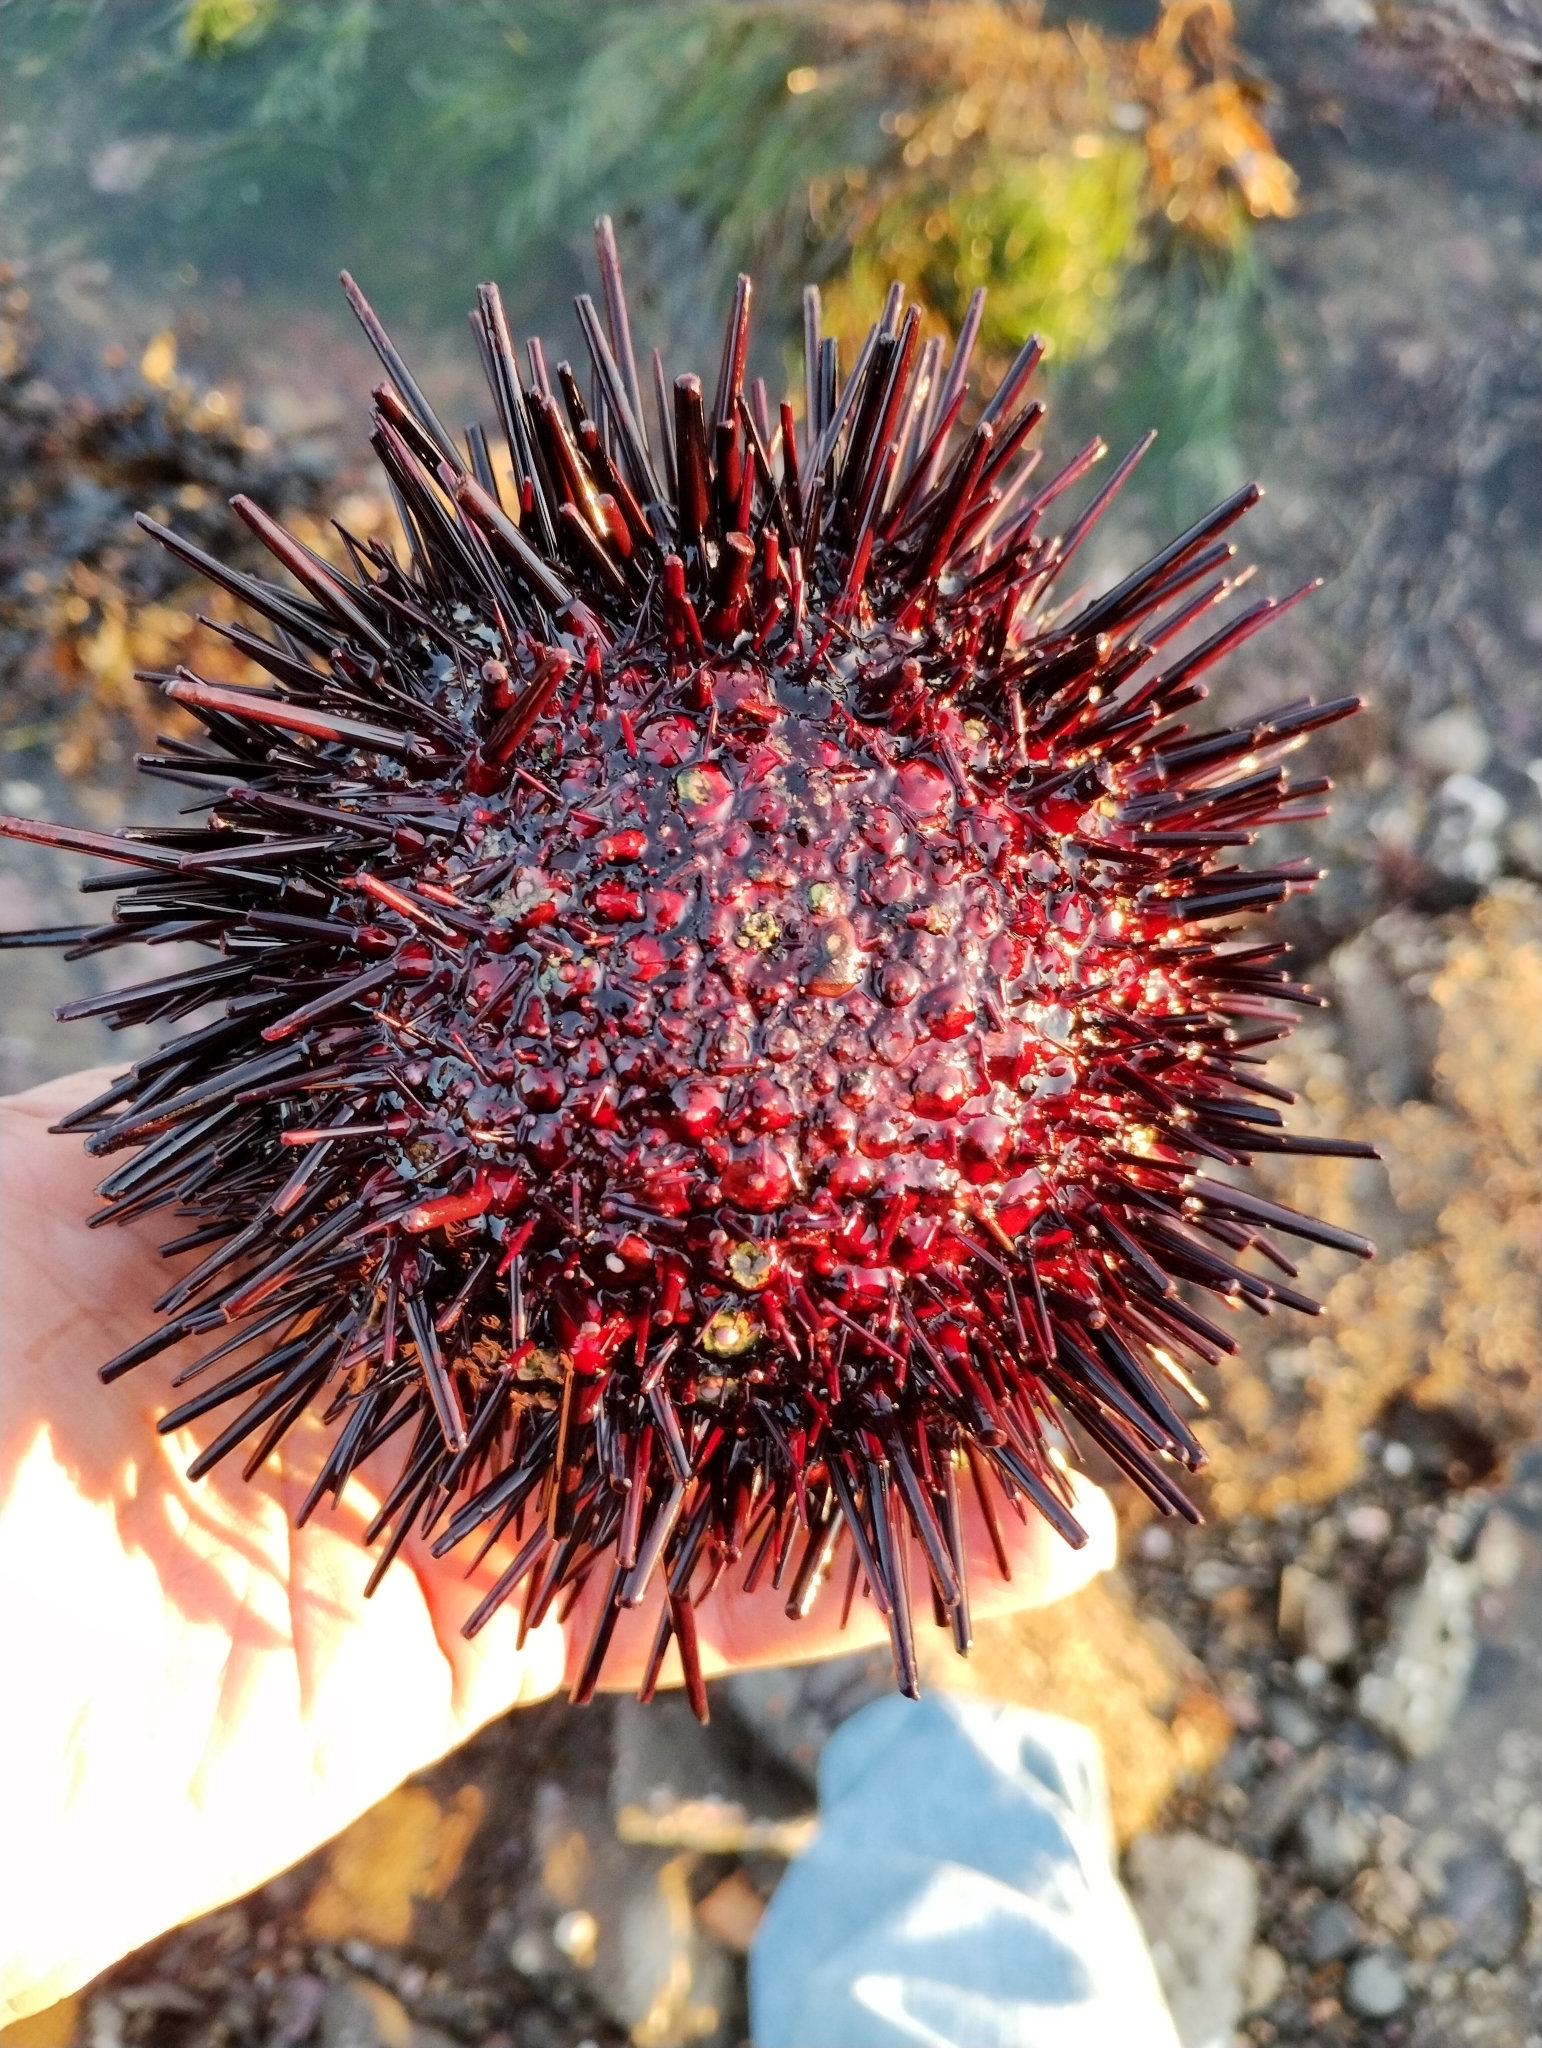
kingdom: Animalia
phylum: Echinodermata
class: Echinoidea
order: Camarodonta
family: Strongylocentrotidae
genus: Mesocentrotus
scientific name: Mesocentrotus franciscanus
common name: Red sea urchin
